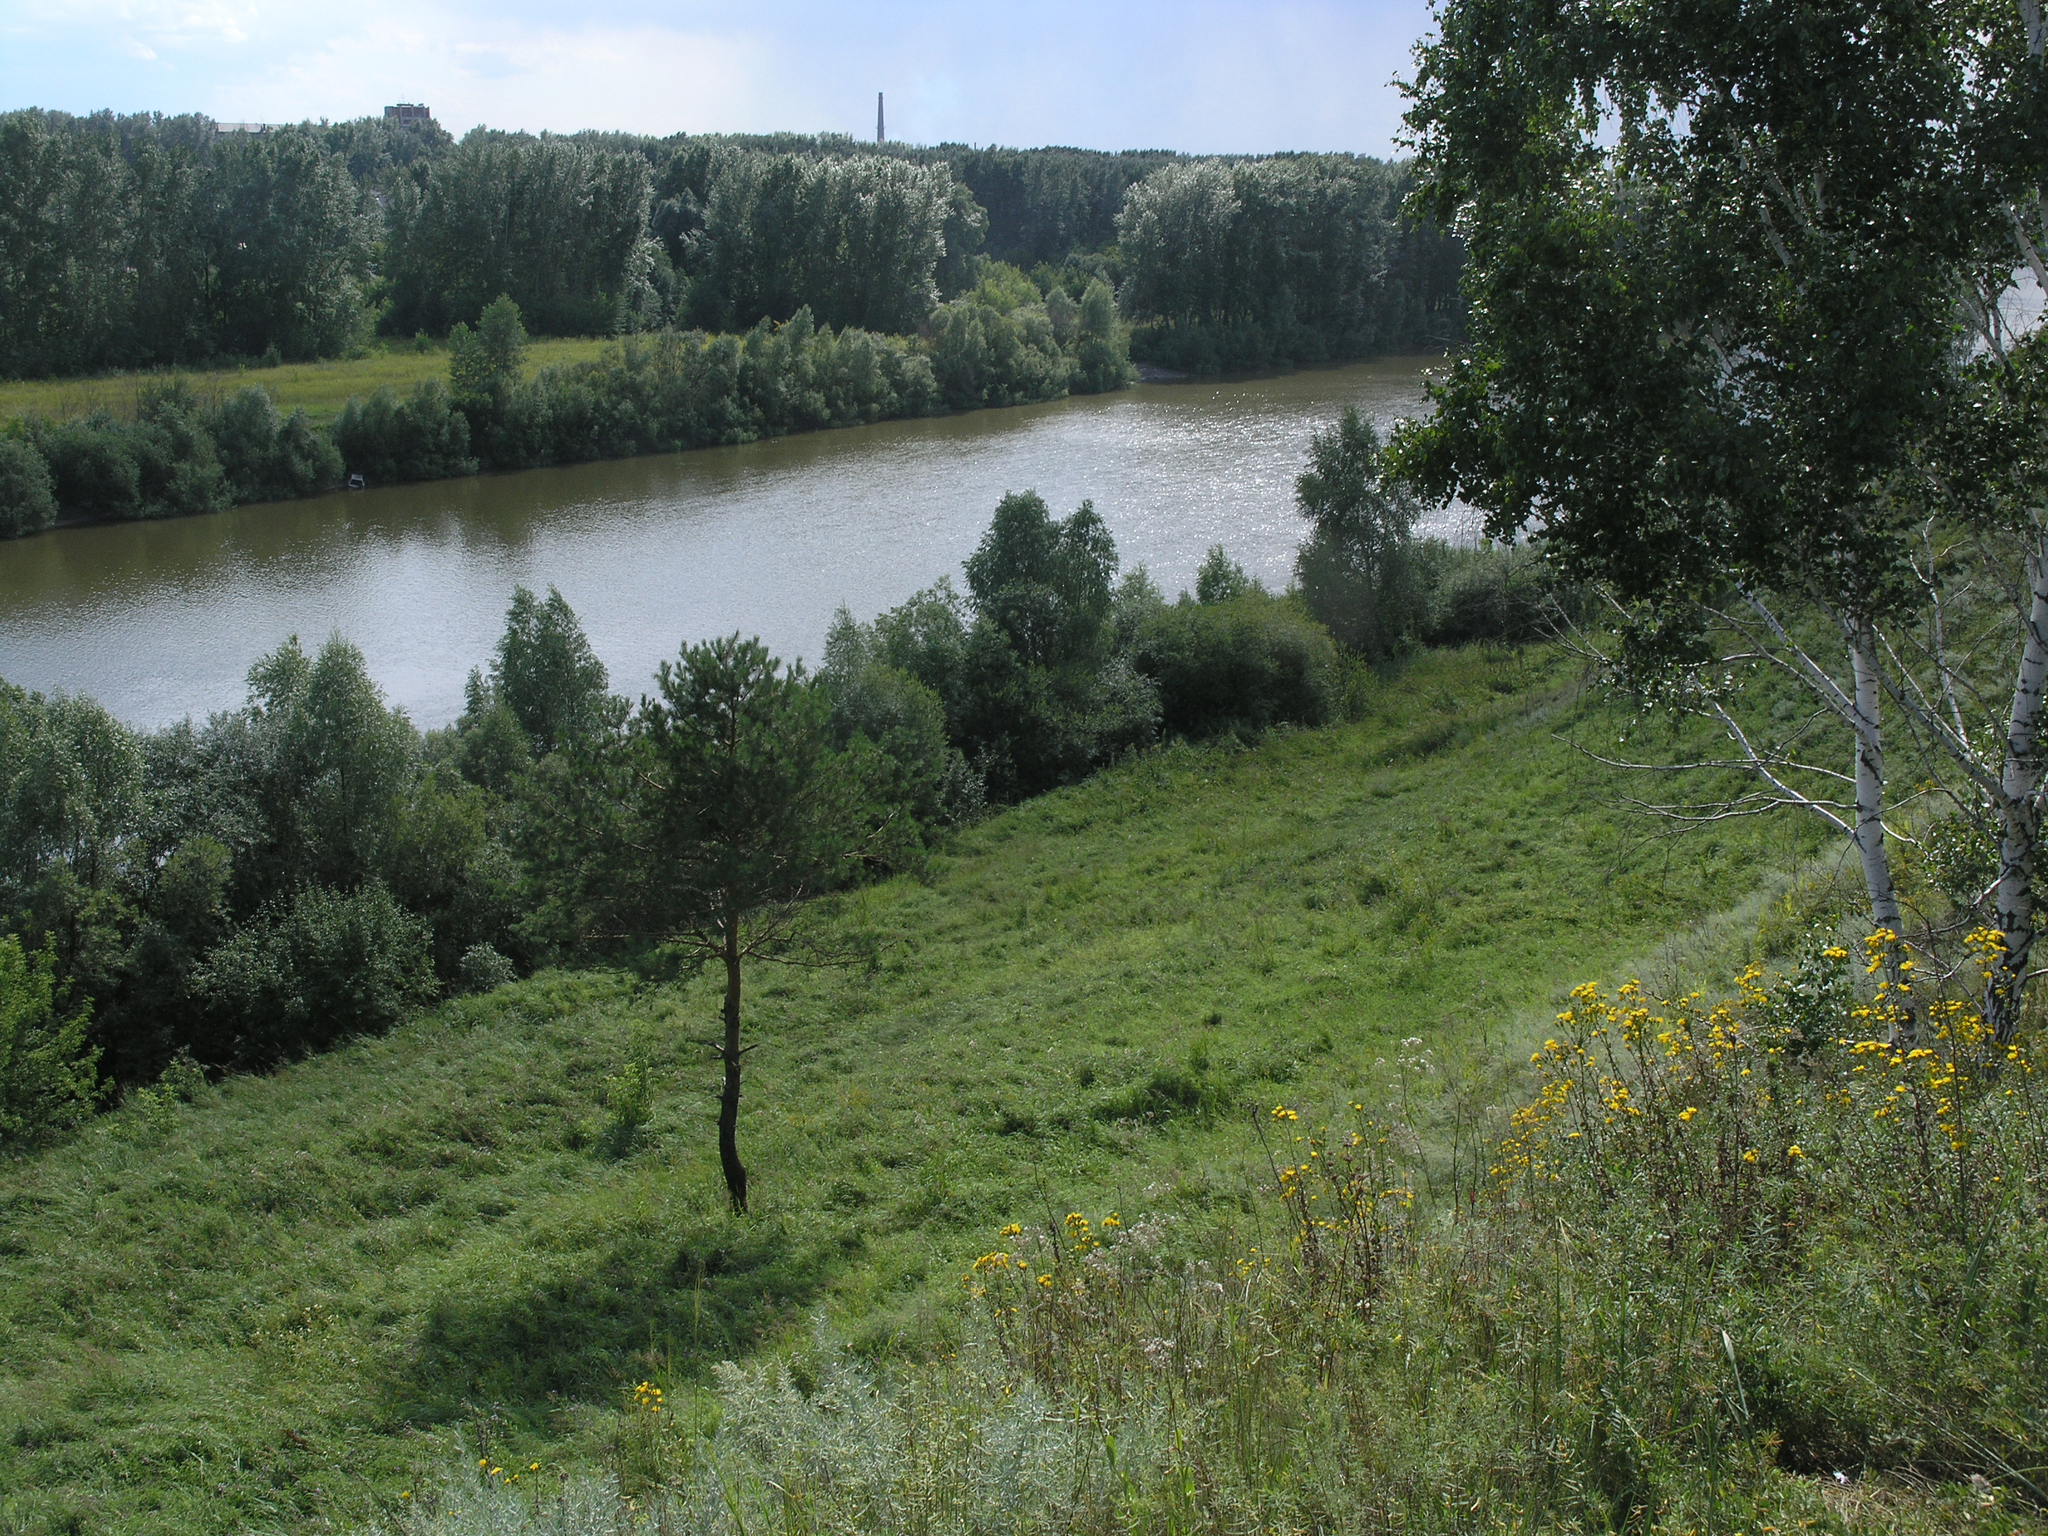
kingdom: Plantae
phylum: Tracheophyta
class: Pinopsida
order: Pinales
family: Pinaceae
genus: Pinus
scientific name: Pinus sylvestris
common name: Scots pine
